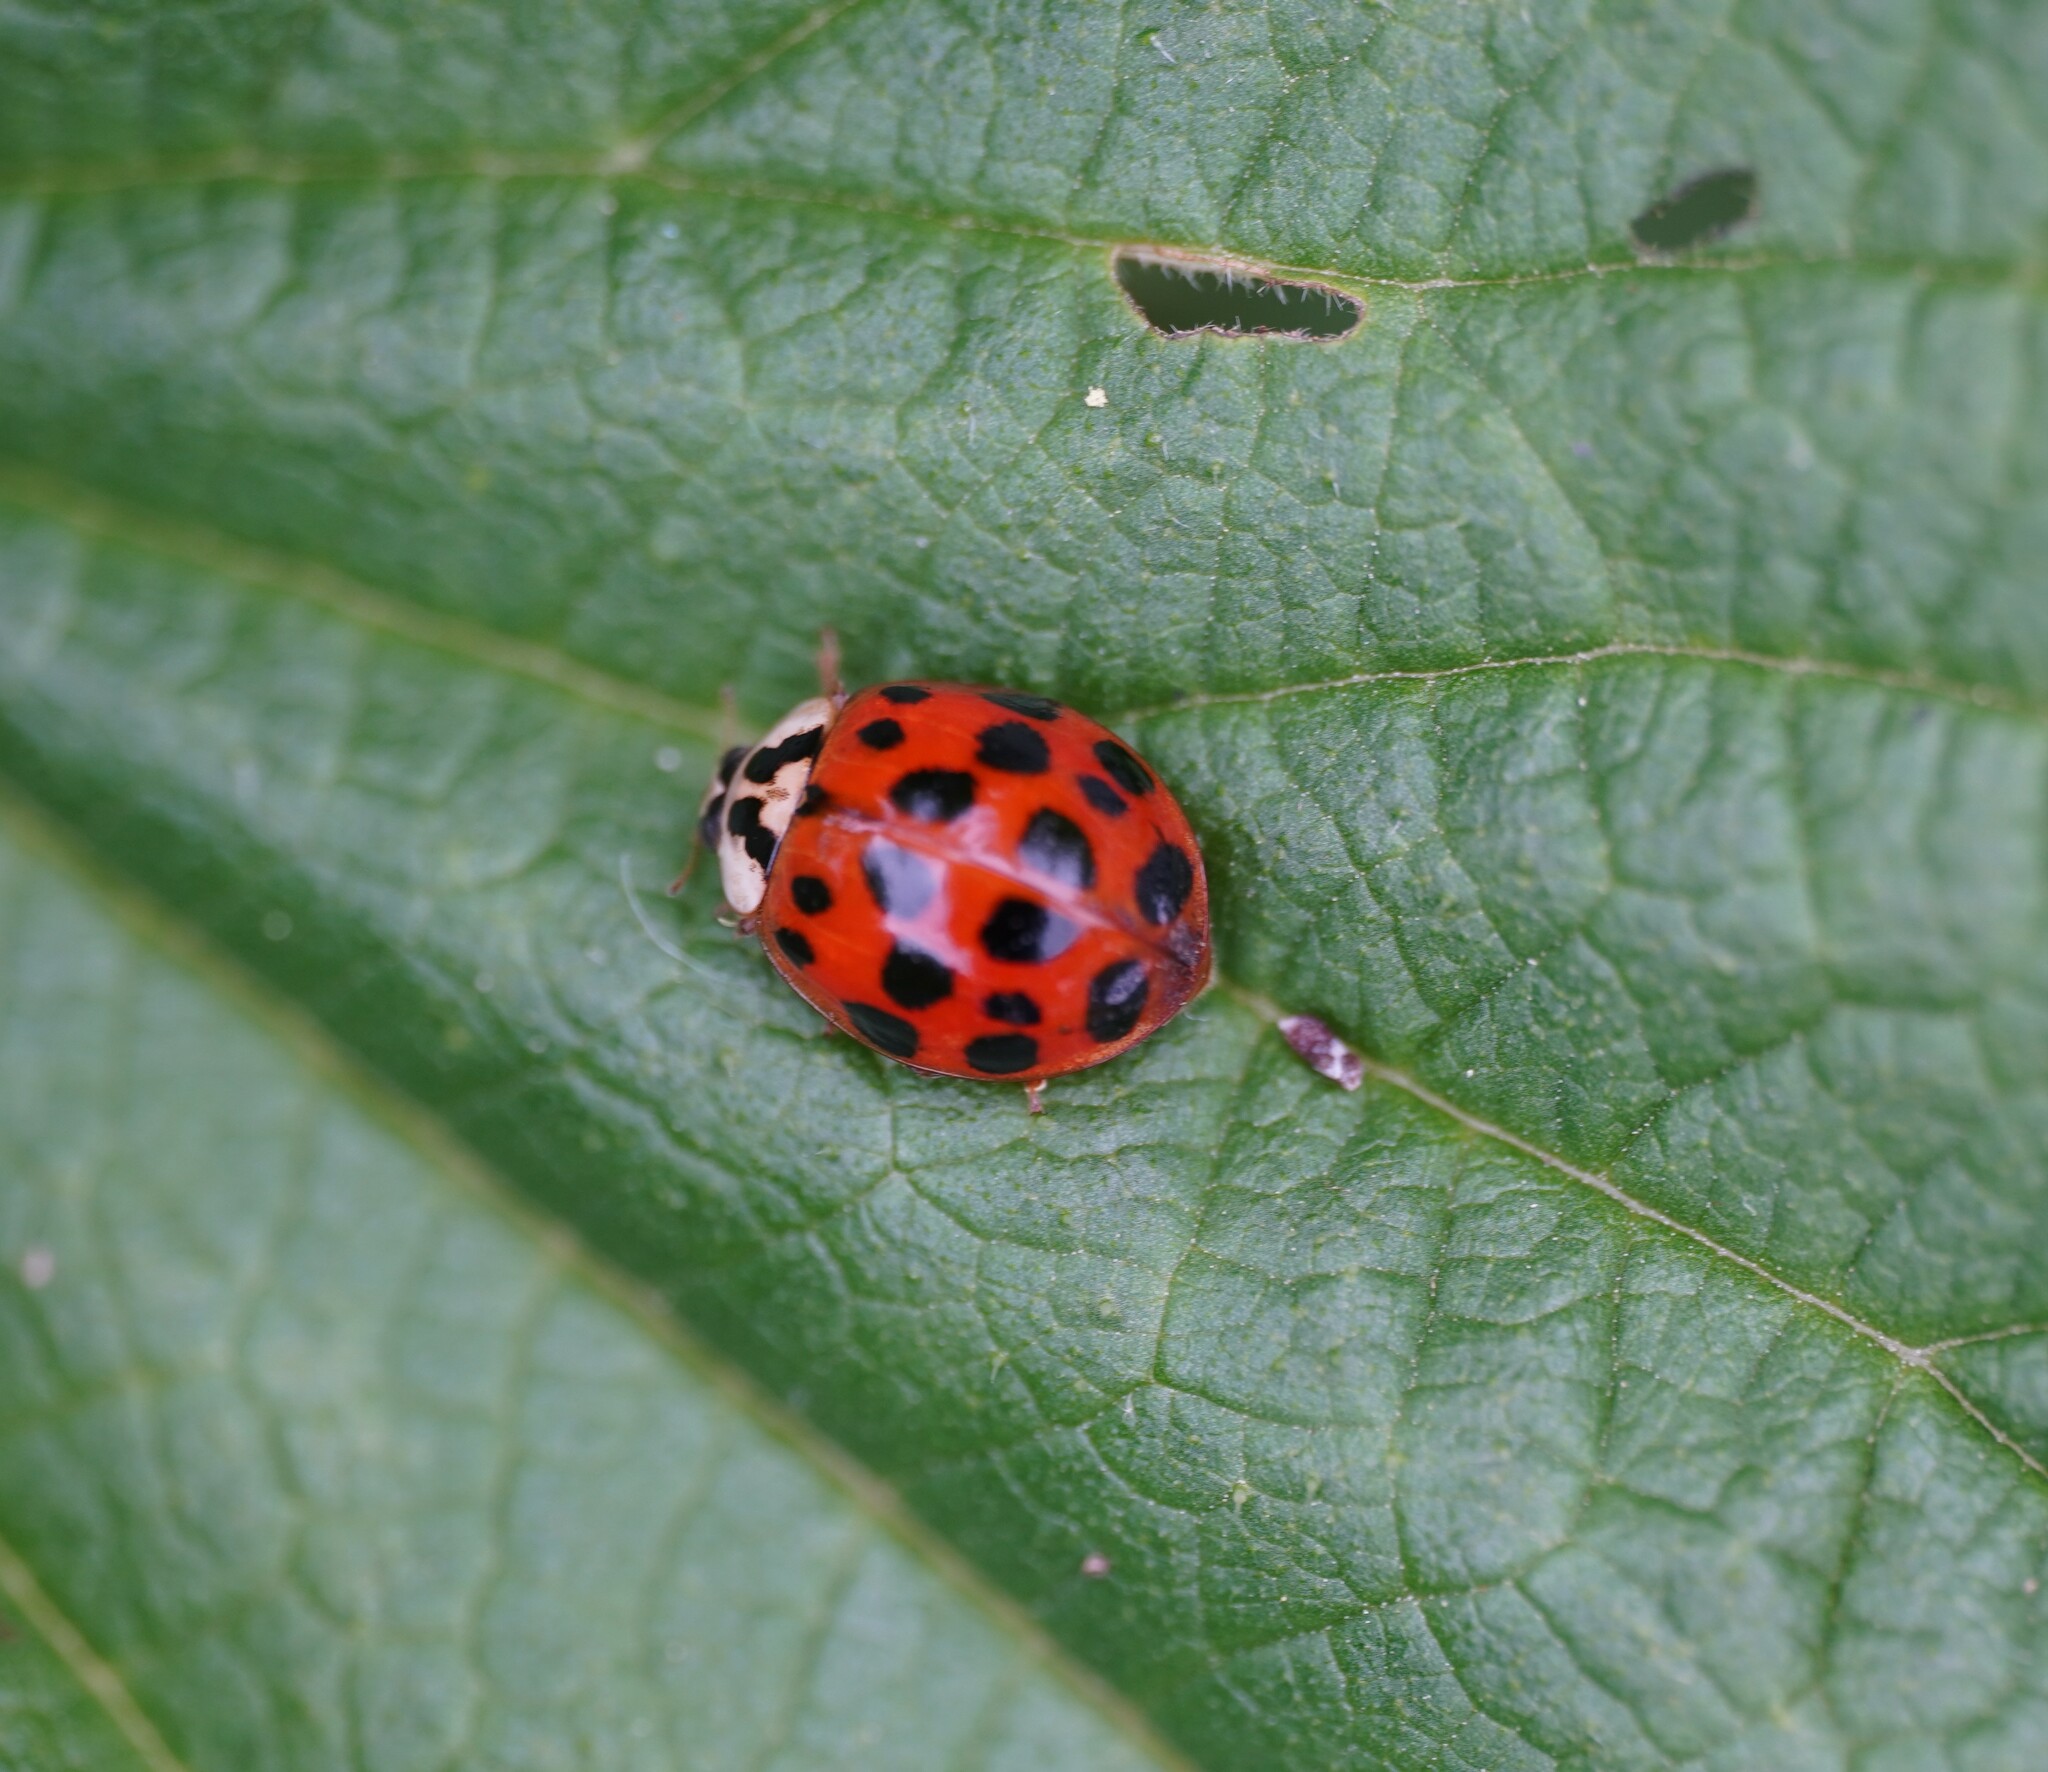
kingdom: Animalia
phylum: Arthropoda
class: Insecta
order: Coleoptera
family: Coccinellidae
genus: Harmonia
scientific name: Harmonia axyridis
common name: Harlequin ladybird
